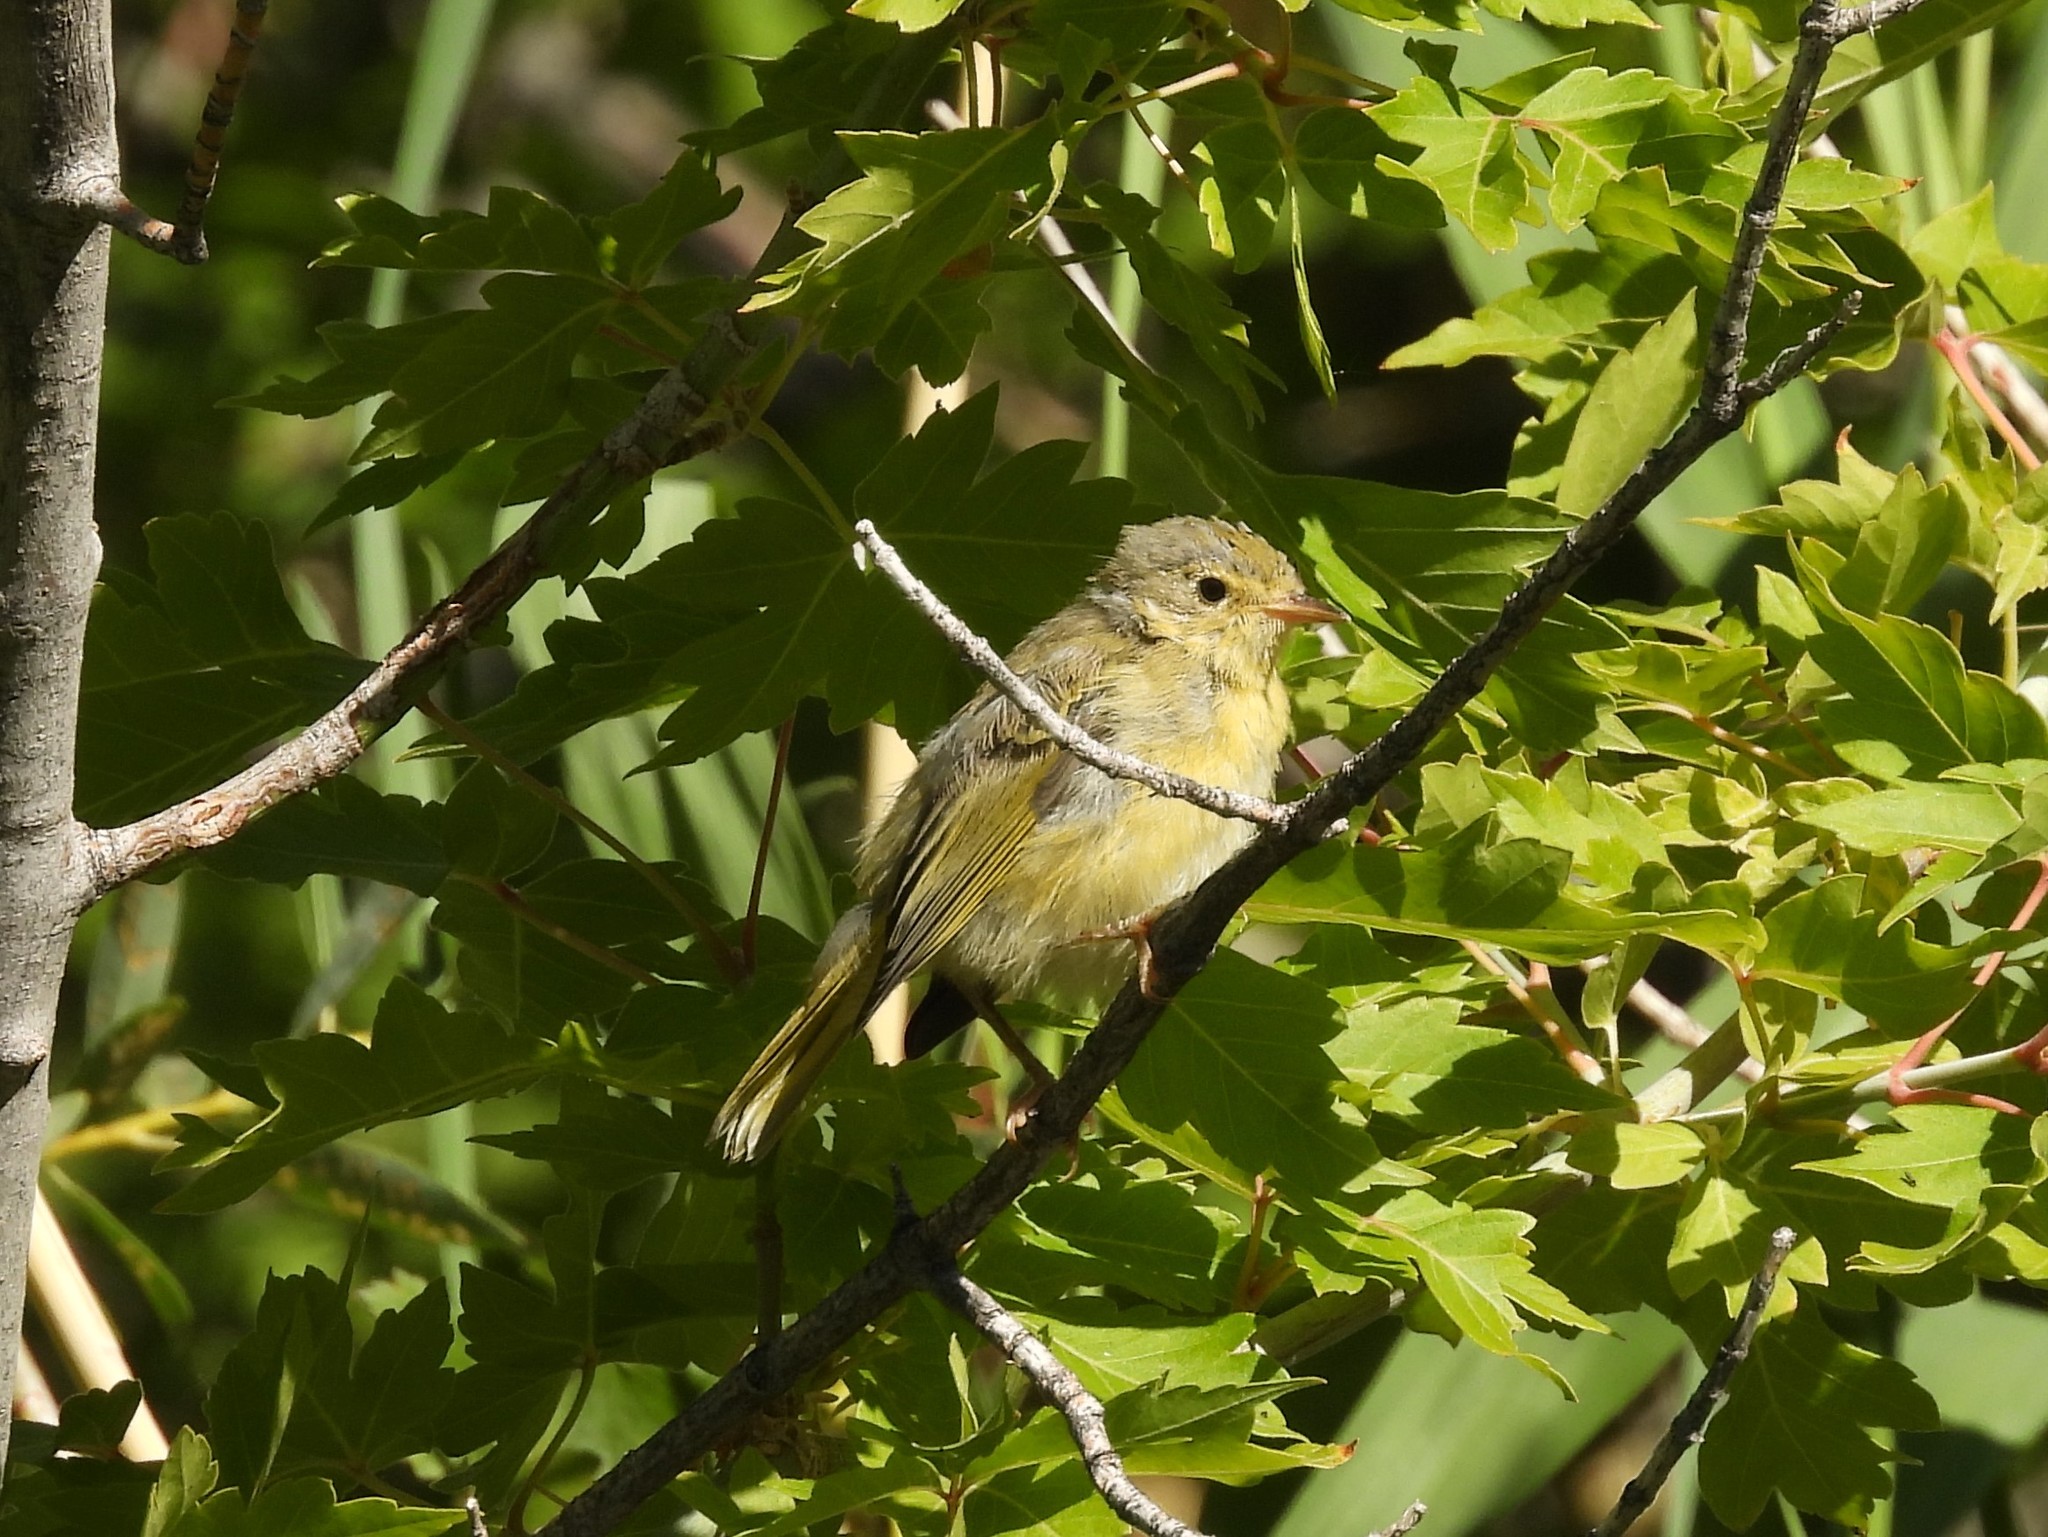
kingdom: Animalia
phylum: Chordata
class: Aves
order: Passeriformes
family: Parulidae
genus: Setophaga
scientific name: Setophaga petechia
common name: Yellow warbler
